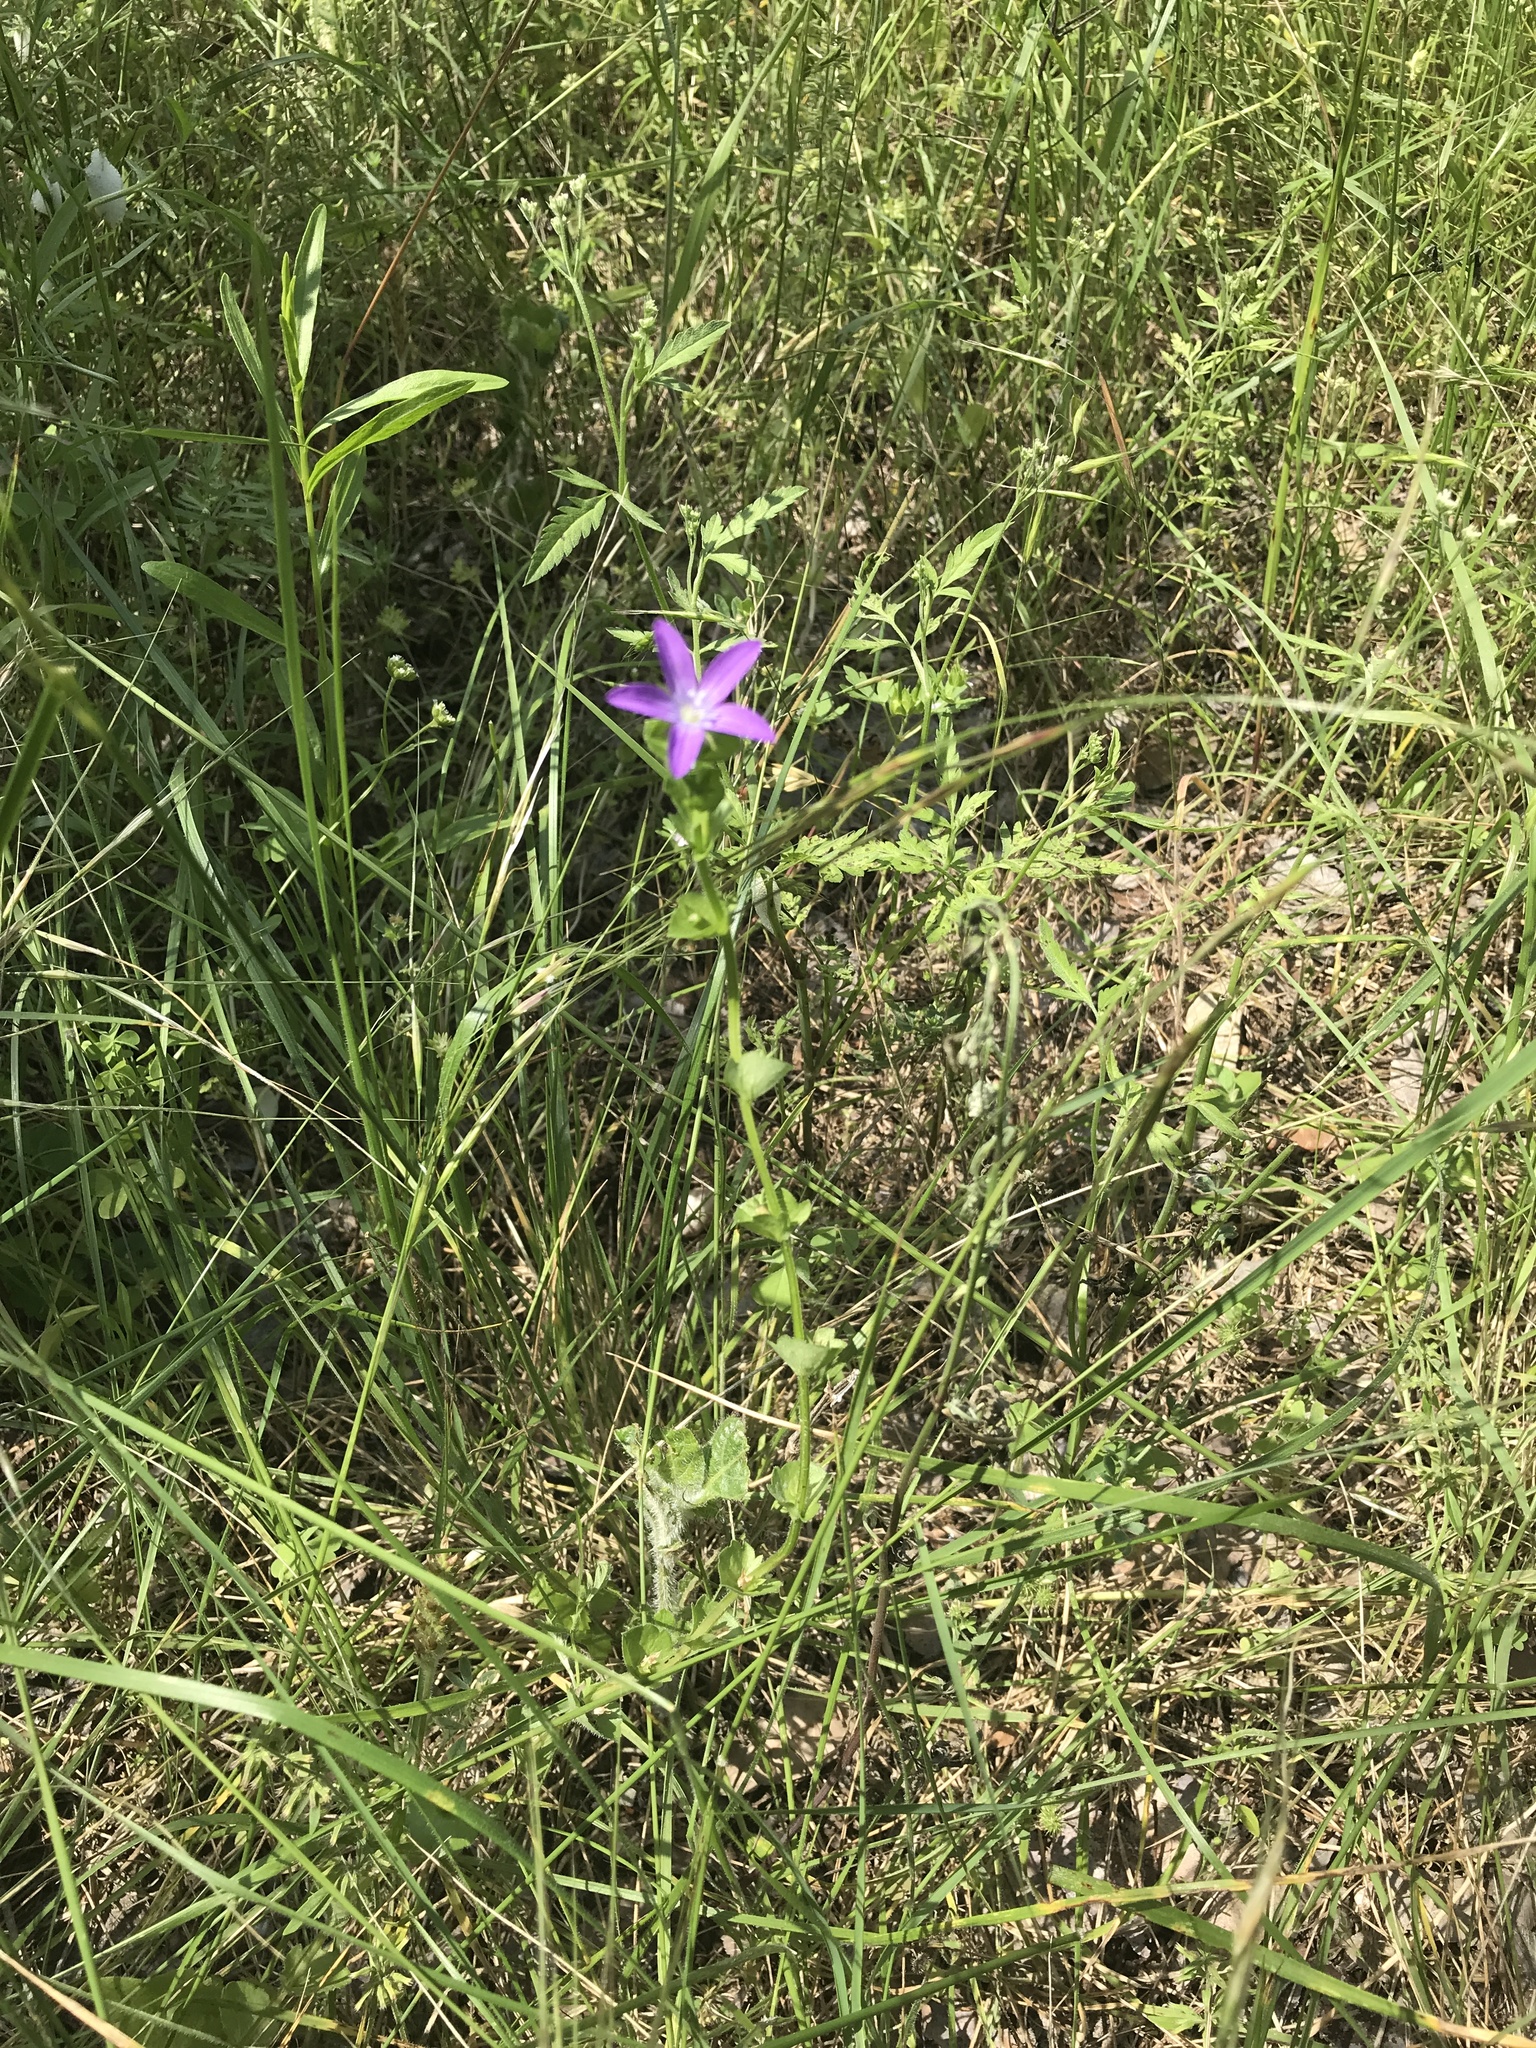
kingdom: Plantae
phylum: Tracheophyta
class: Magnoliopsida
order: Asterales
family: Campanulaceae
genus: Triodanis
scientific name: Triodanis perfoliata
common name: Clasping venus' looking-glass
